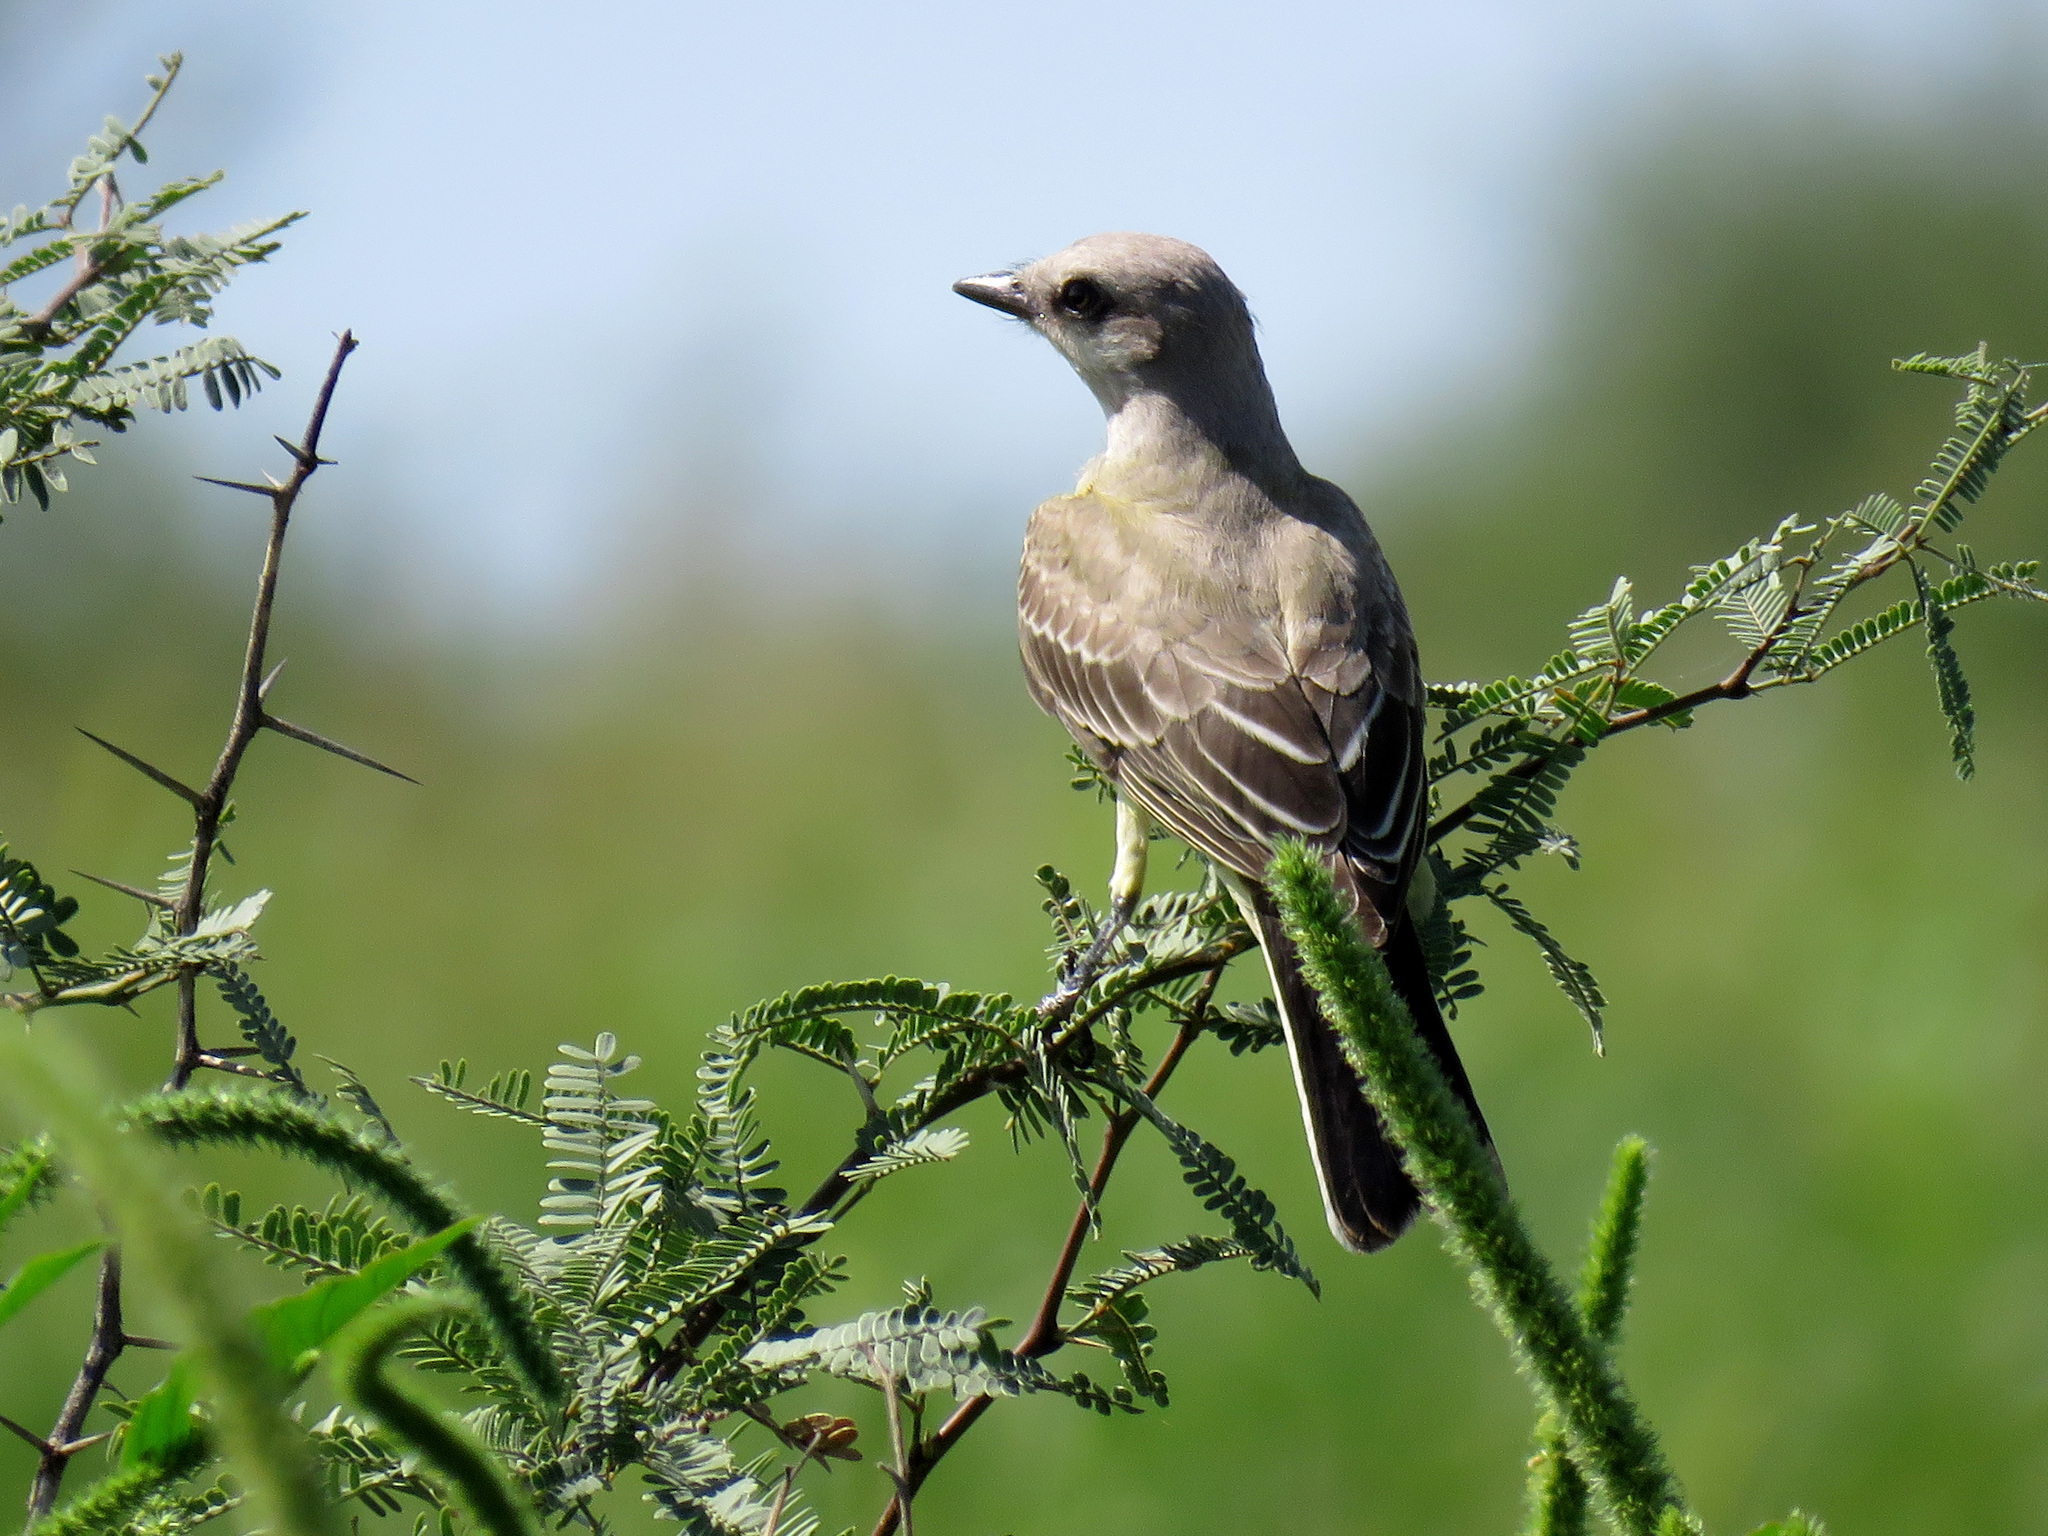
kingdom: Animalia
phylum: Chordata
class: Aves
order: Passeriformes
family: Tyrannidae
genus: Tyrannus
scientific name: Tyrannus verticalis
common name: Western kingbird
